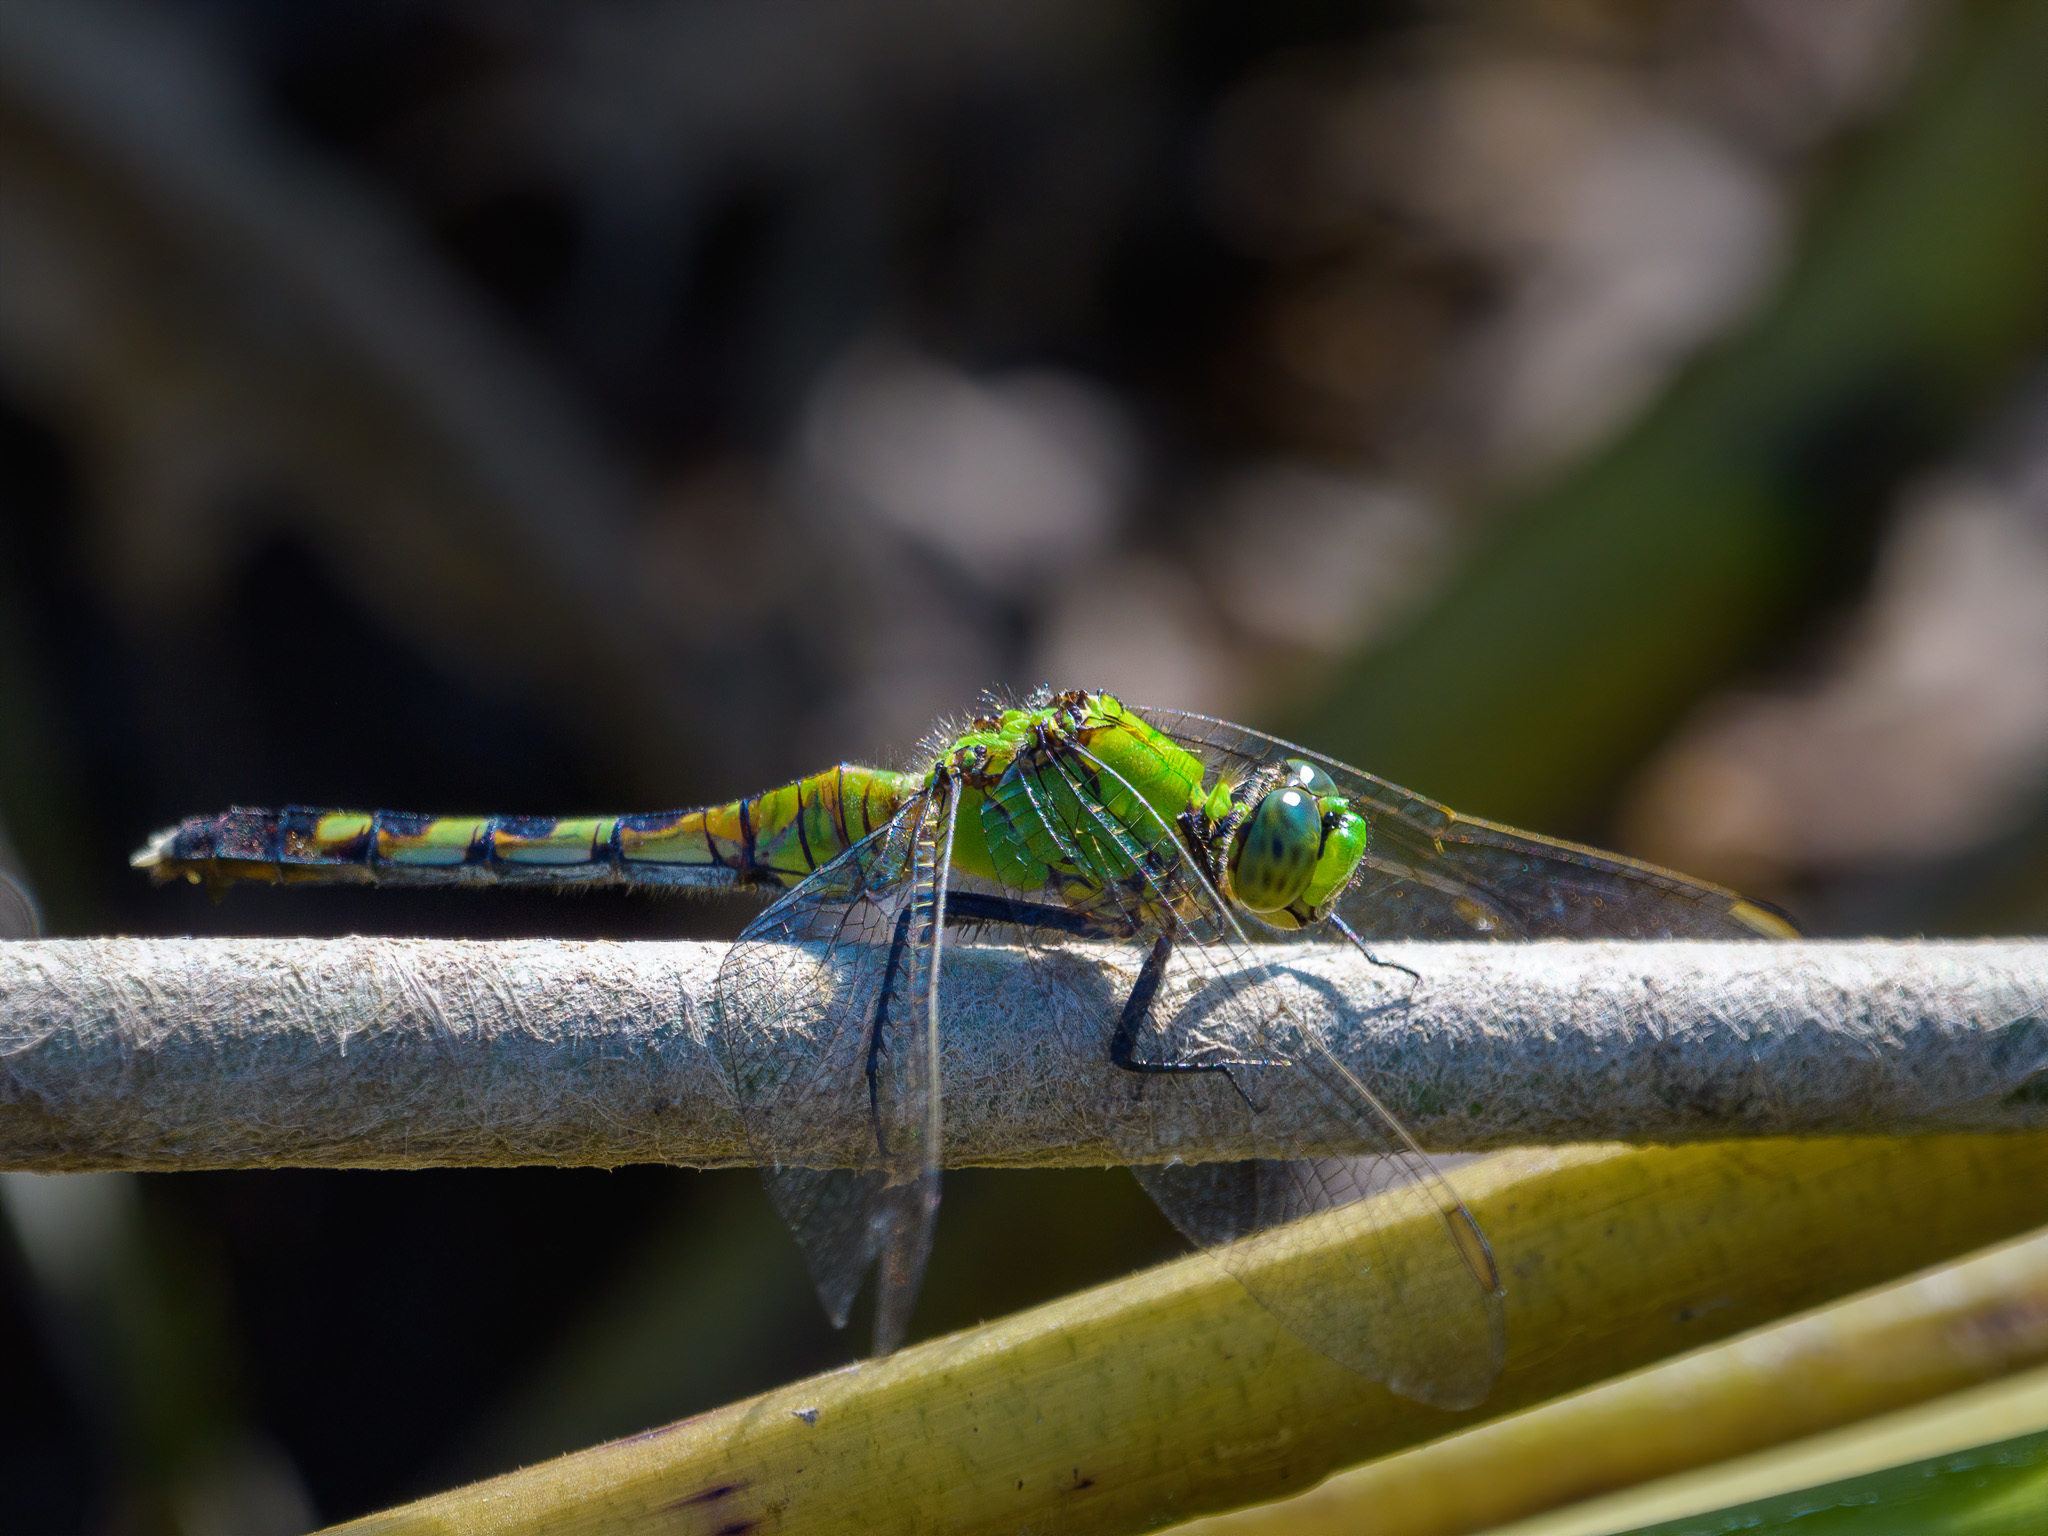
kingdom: Animalia
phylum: Arthropoda
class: Insecta
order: Odonata
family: Libellulidae
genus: Erythemis
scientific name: Erythemis simplicicollis
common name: Eastern pondhawk
